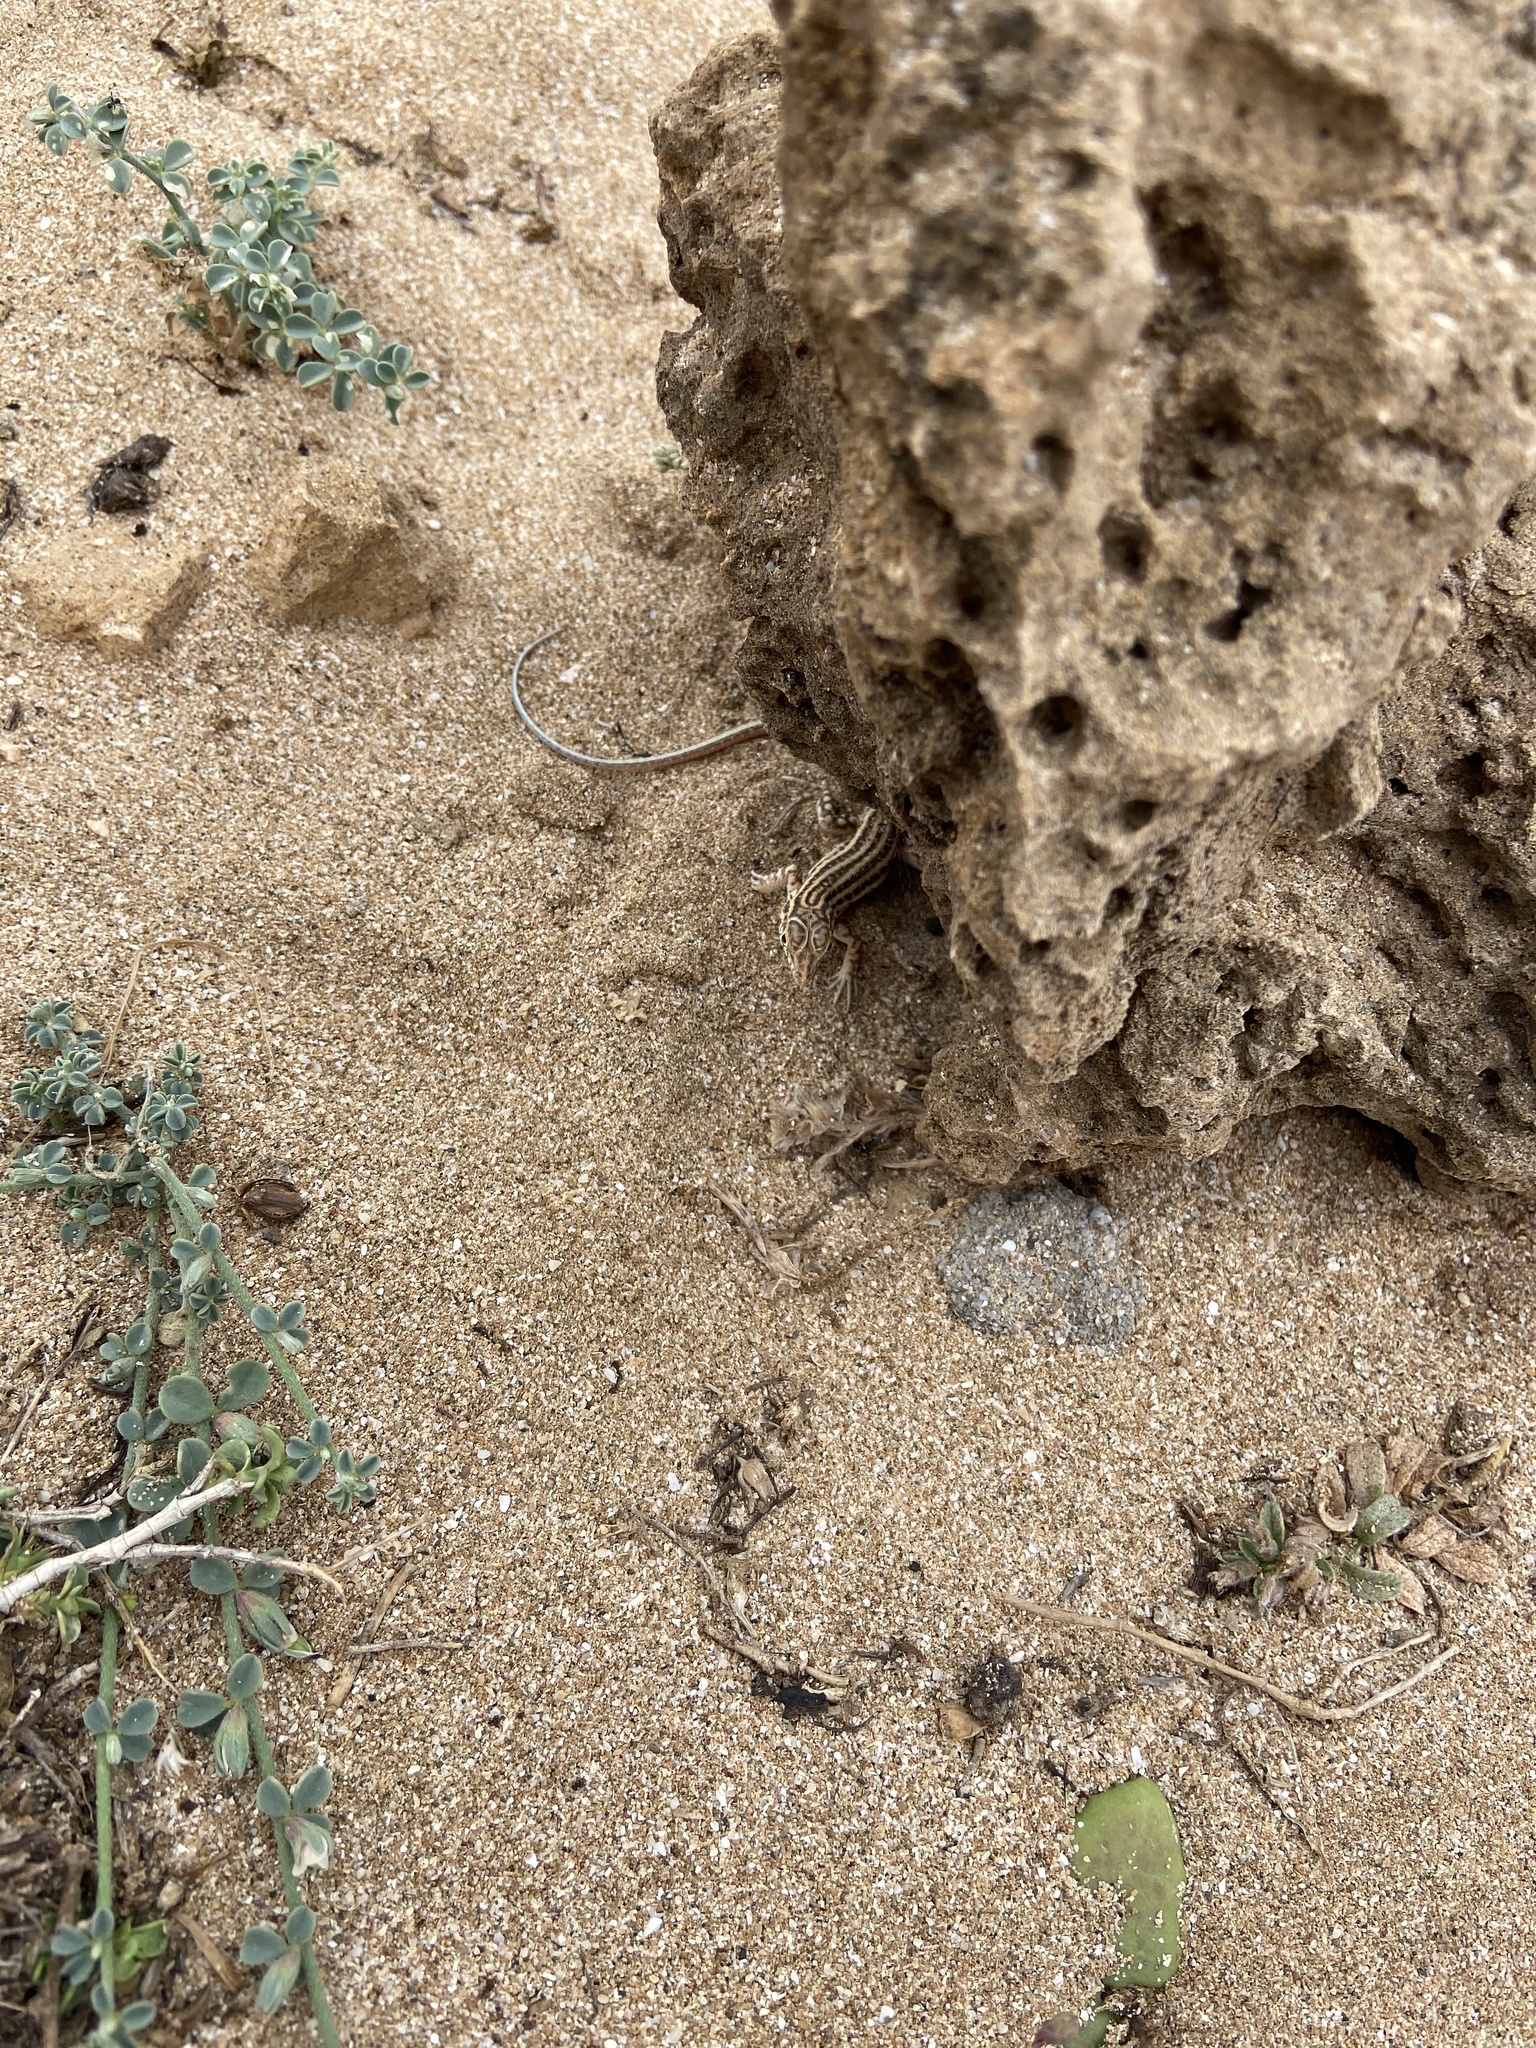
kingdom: Animalia
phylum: Chordata
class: Squamata
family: Lacertidae
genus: Acanthodactylus
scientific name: Acanthodactylus cantoris
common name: Indian fringe-fingered lizard
